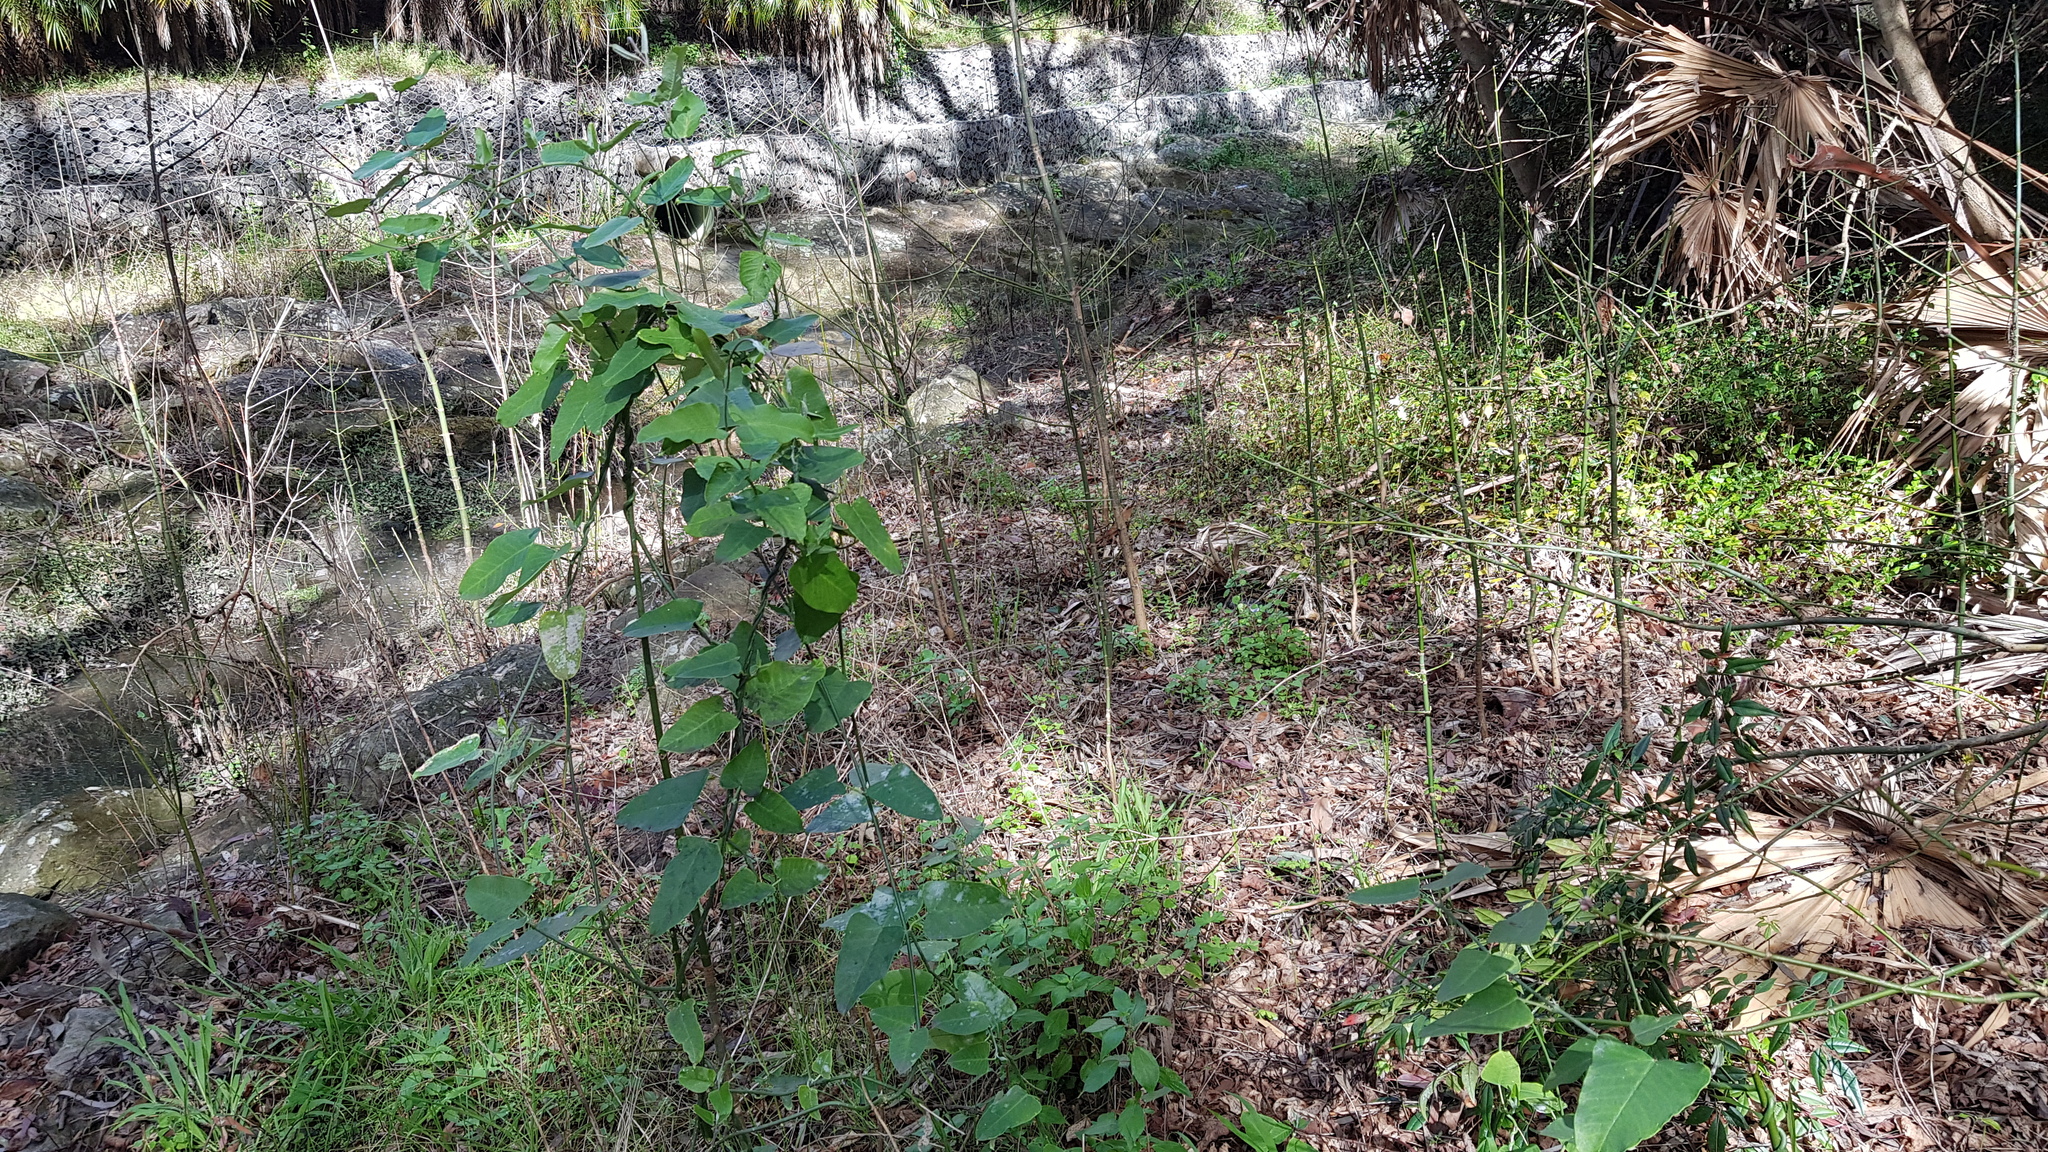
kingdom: Plantae
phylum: Tracheophyta
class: Magnoliopsida
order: Gentianales
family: Apocynaceae
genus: Araujia
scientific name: Araujia sericifera
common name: White bladderflower
